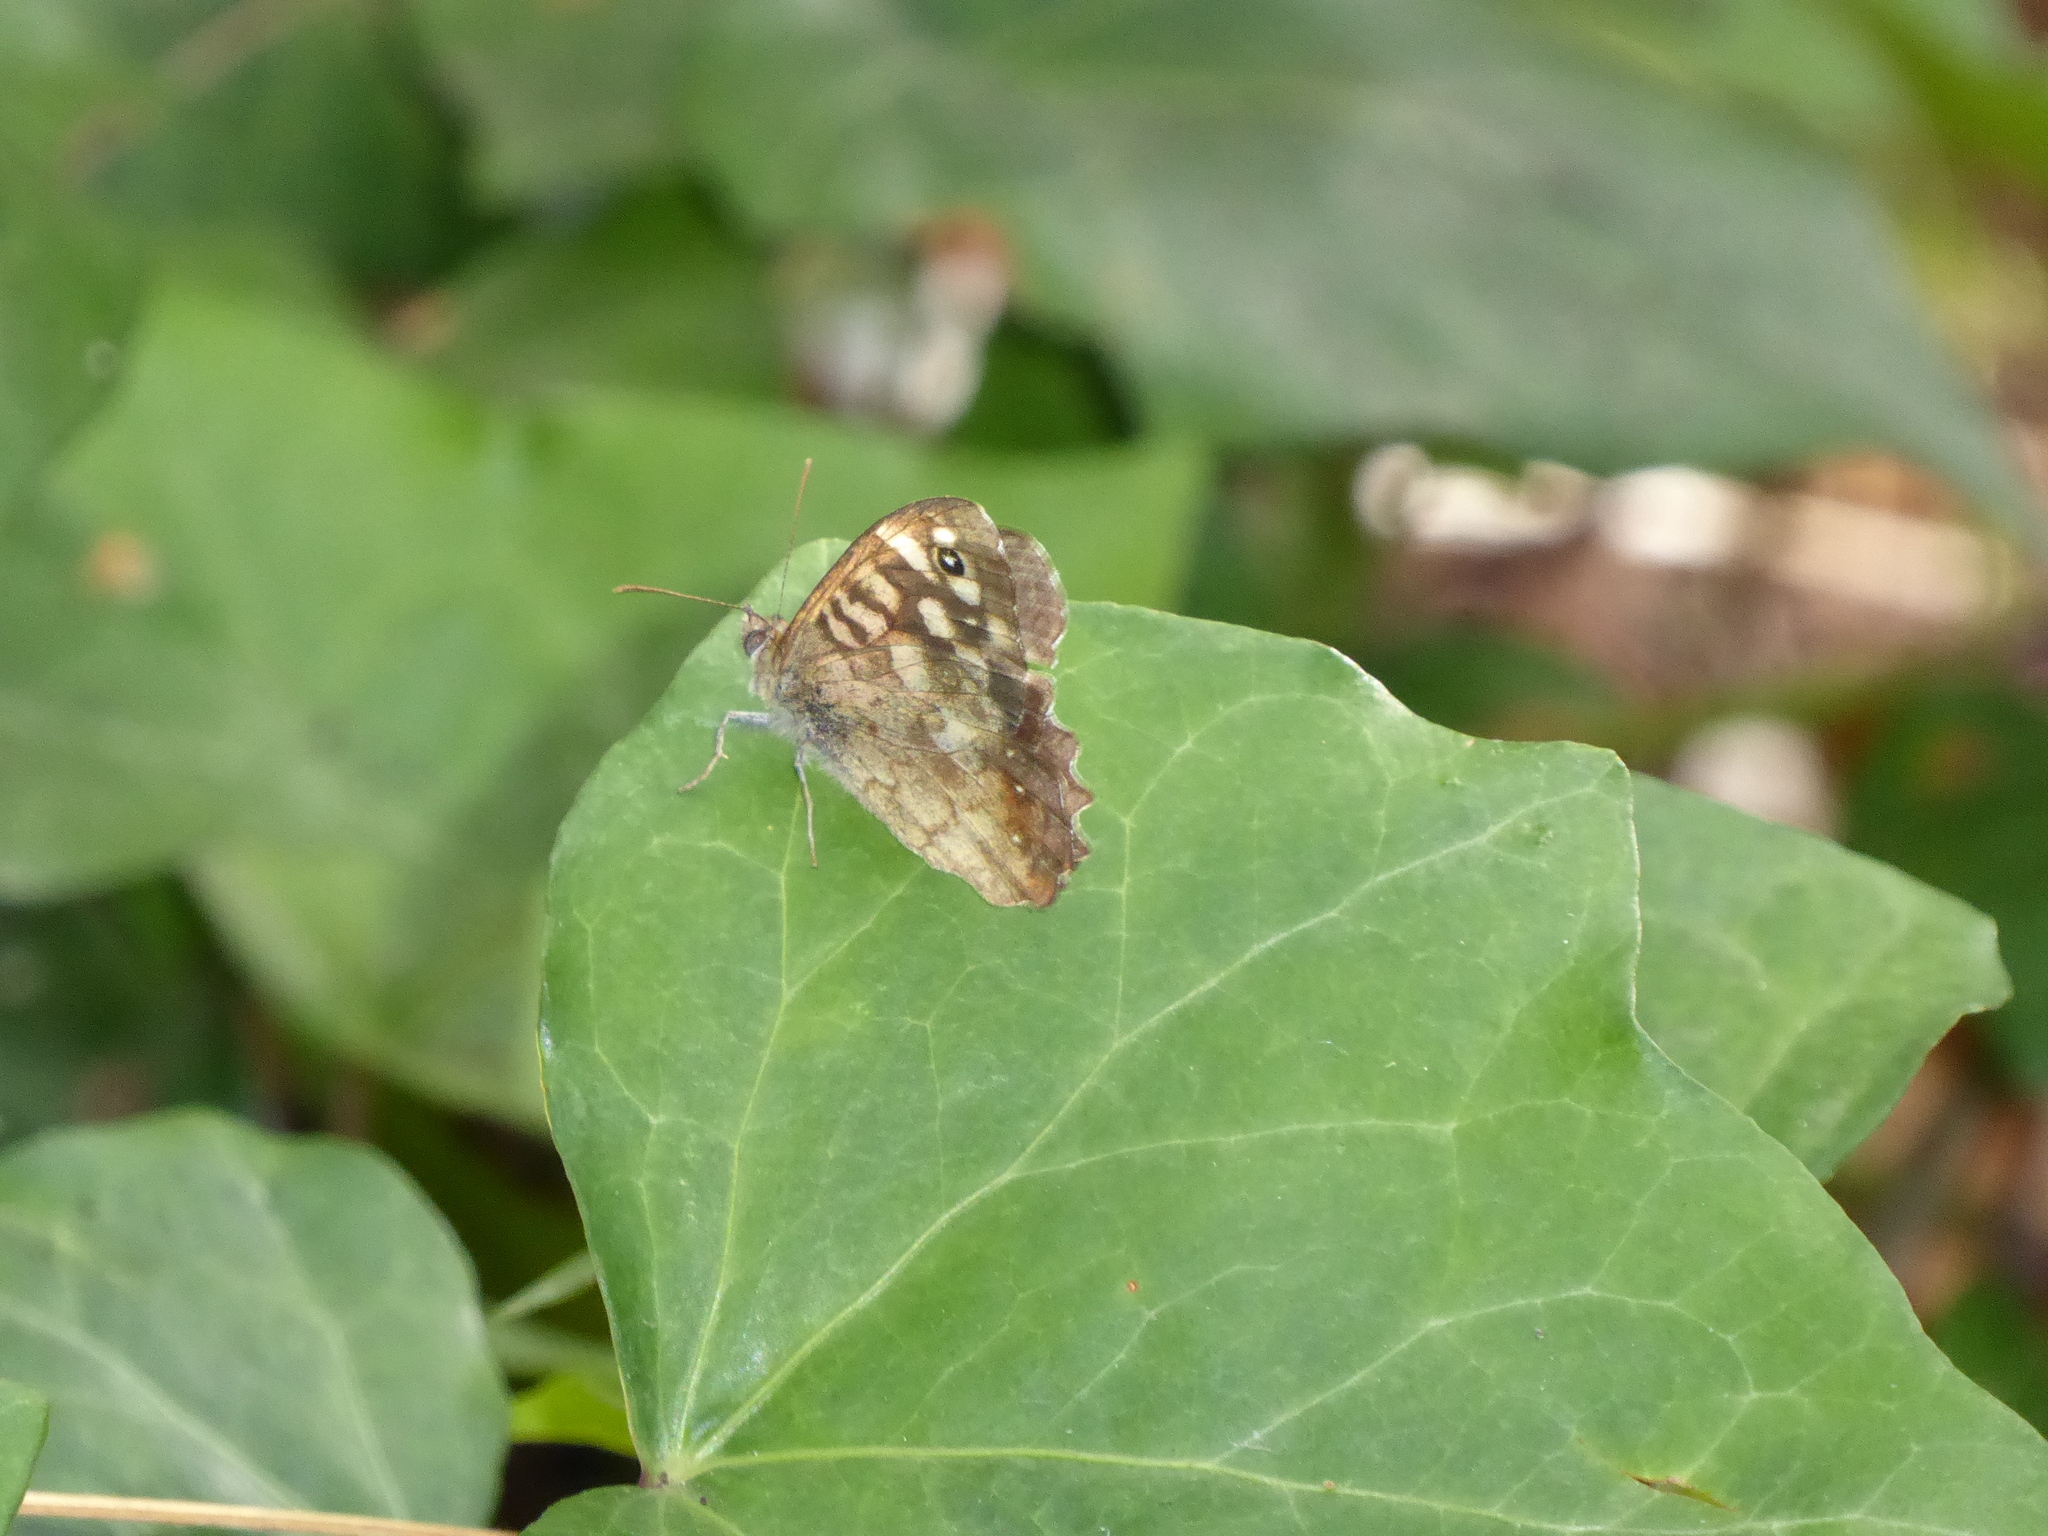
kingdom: Animalia
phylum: Arthropoda
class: Insecta
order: Lepidoptera
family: Nymphalidae
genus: Pararge
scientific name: Pararge aegeria
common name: Speckled wood
